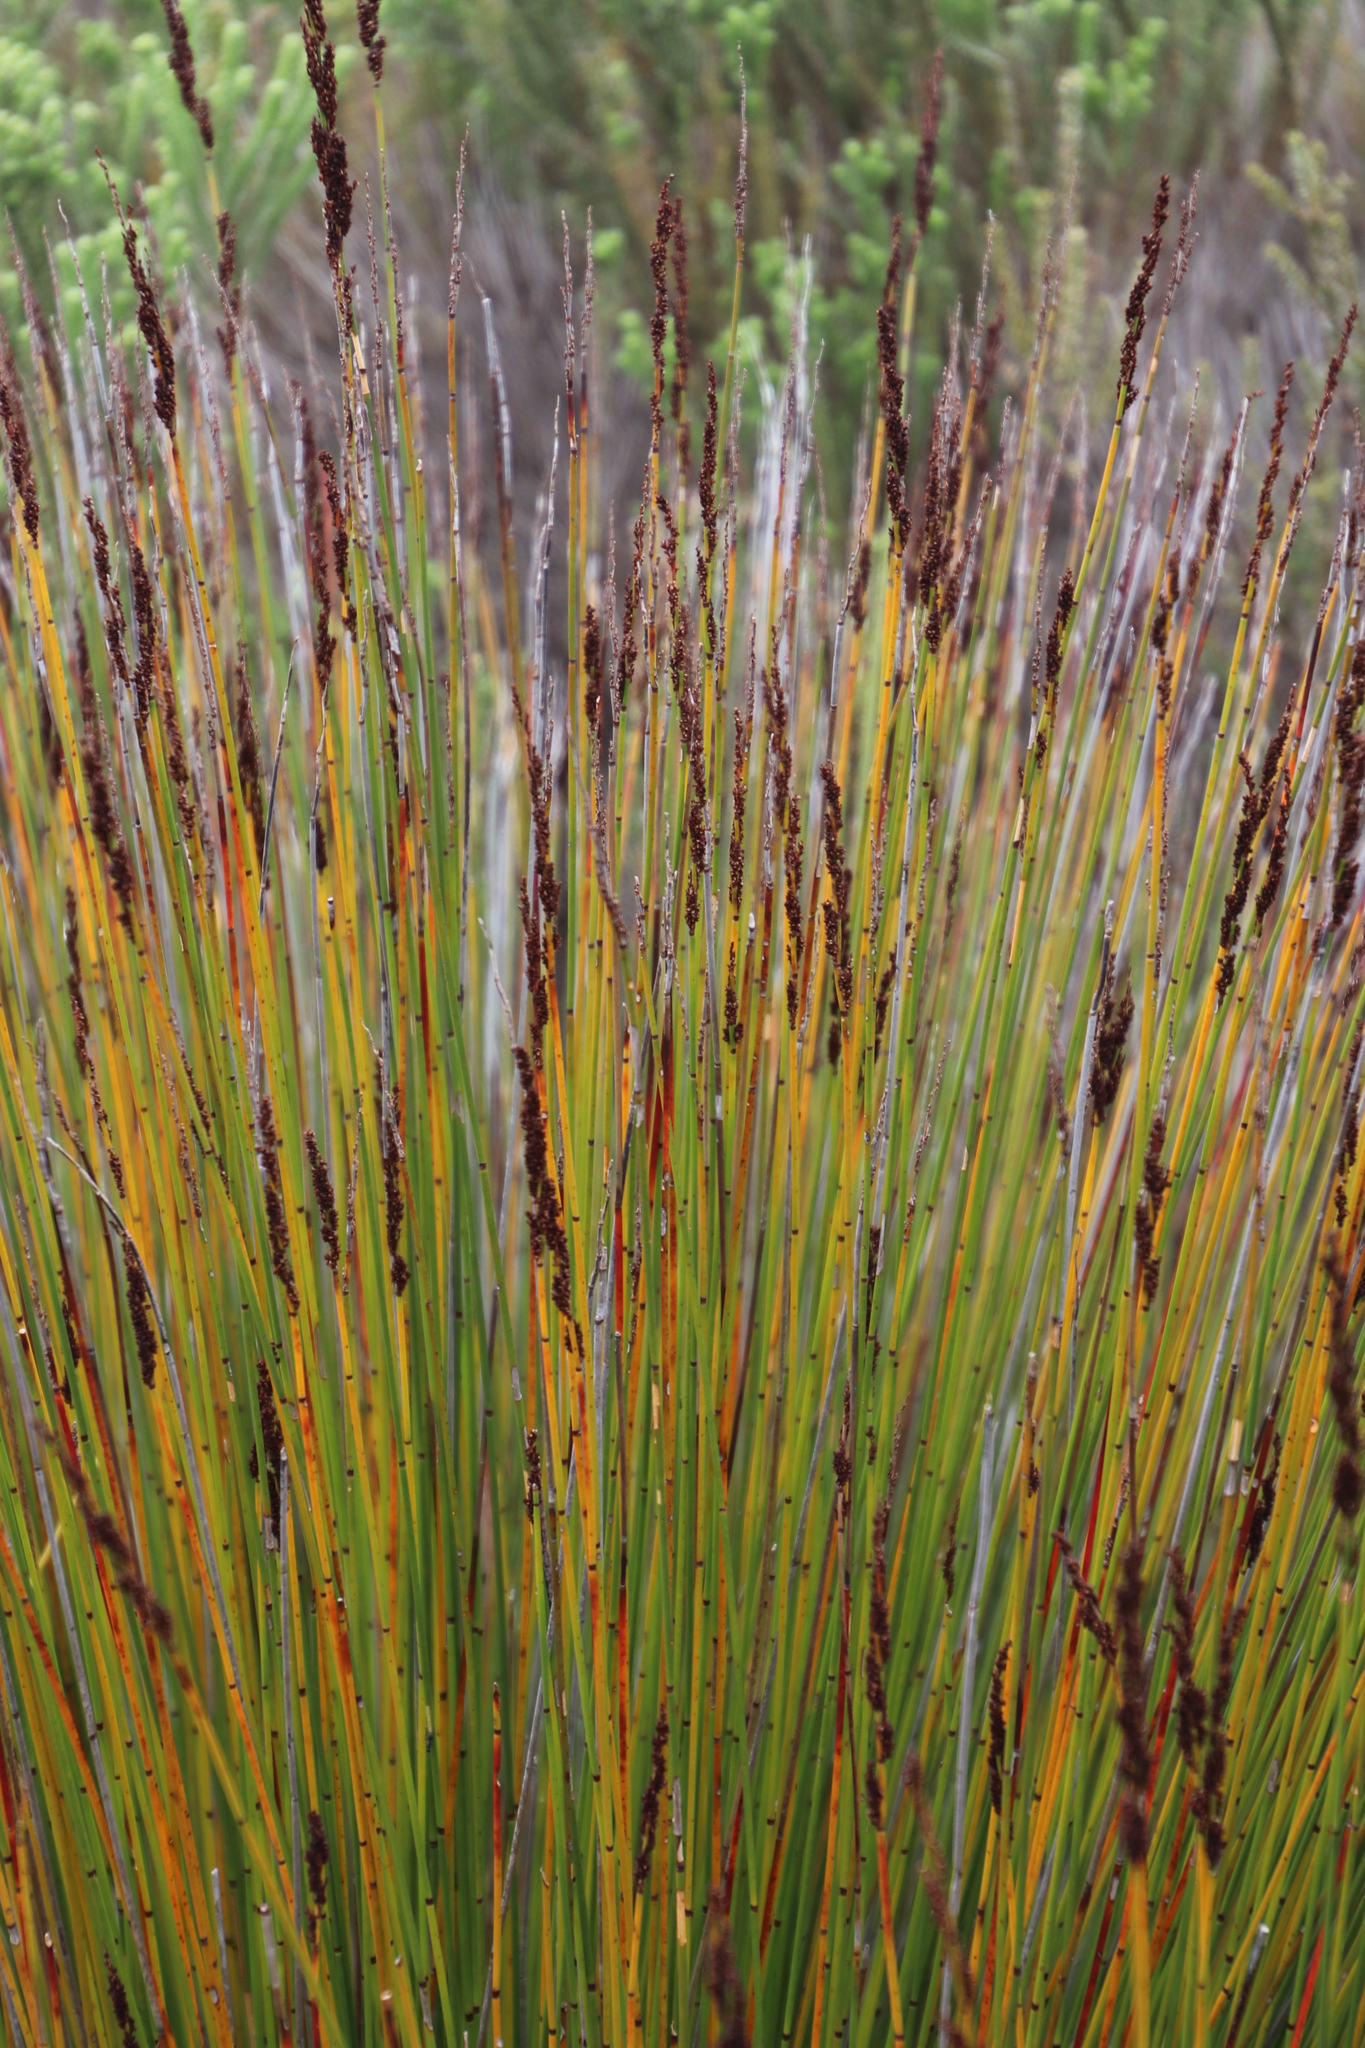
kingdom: Plantae
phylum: Tracheophyta
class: Liliopsida
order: Poales
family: Restionaceae
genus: Elegia
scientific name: Elegia tectorum
